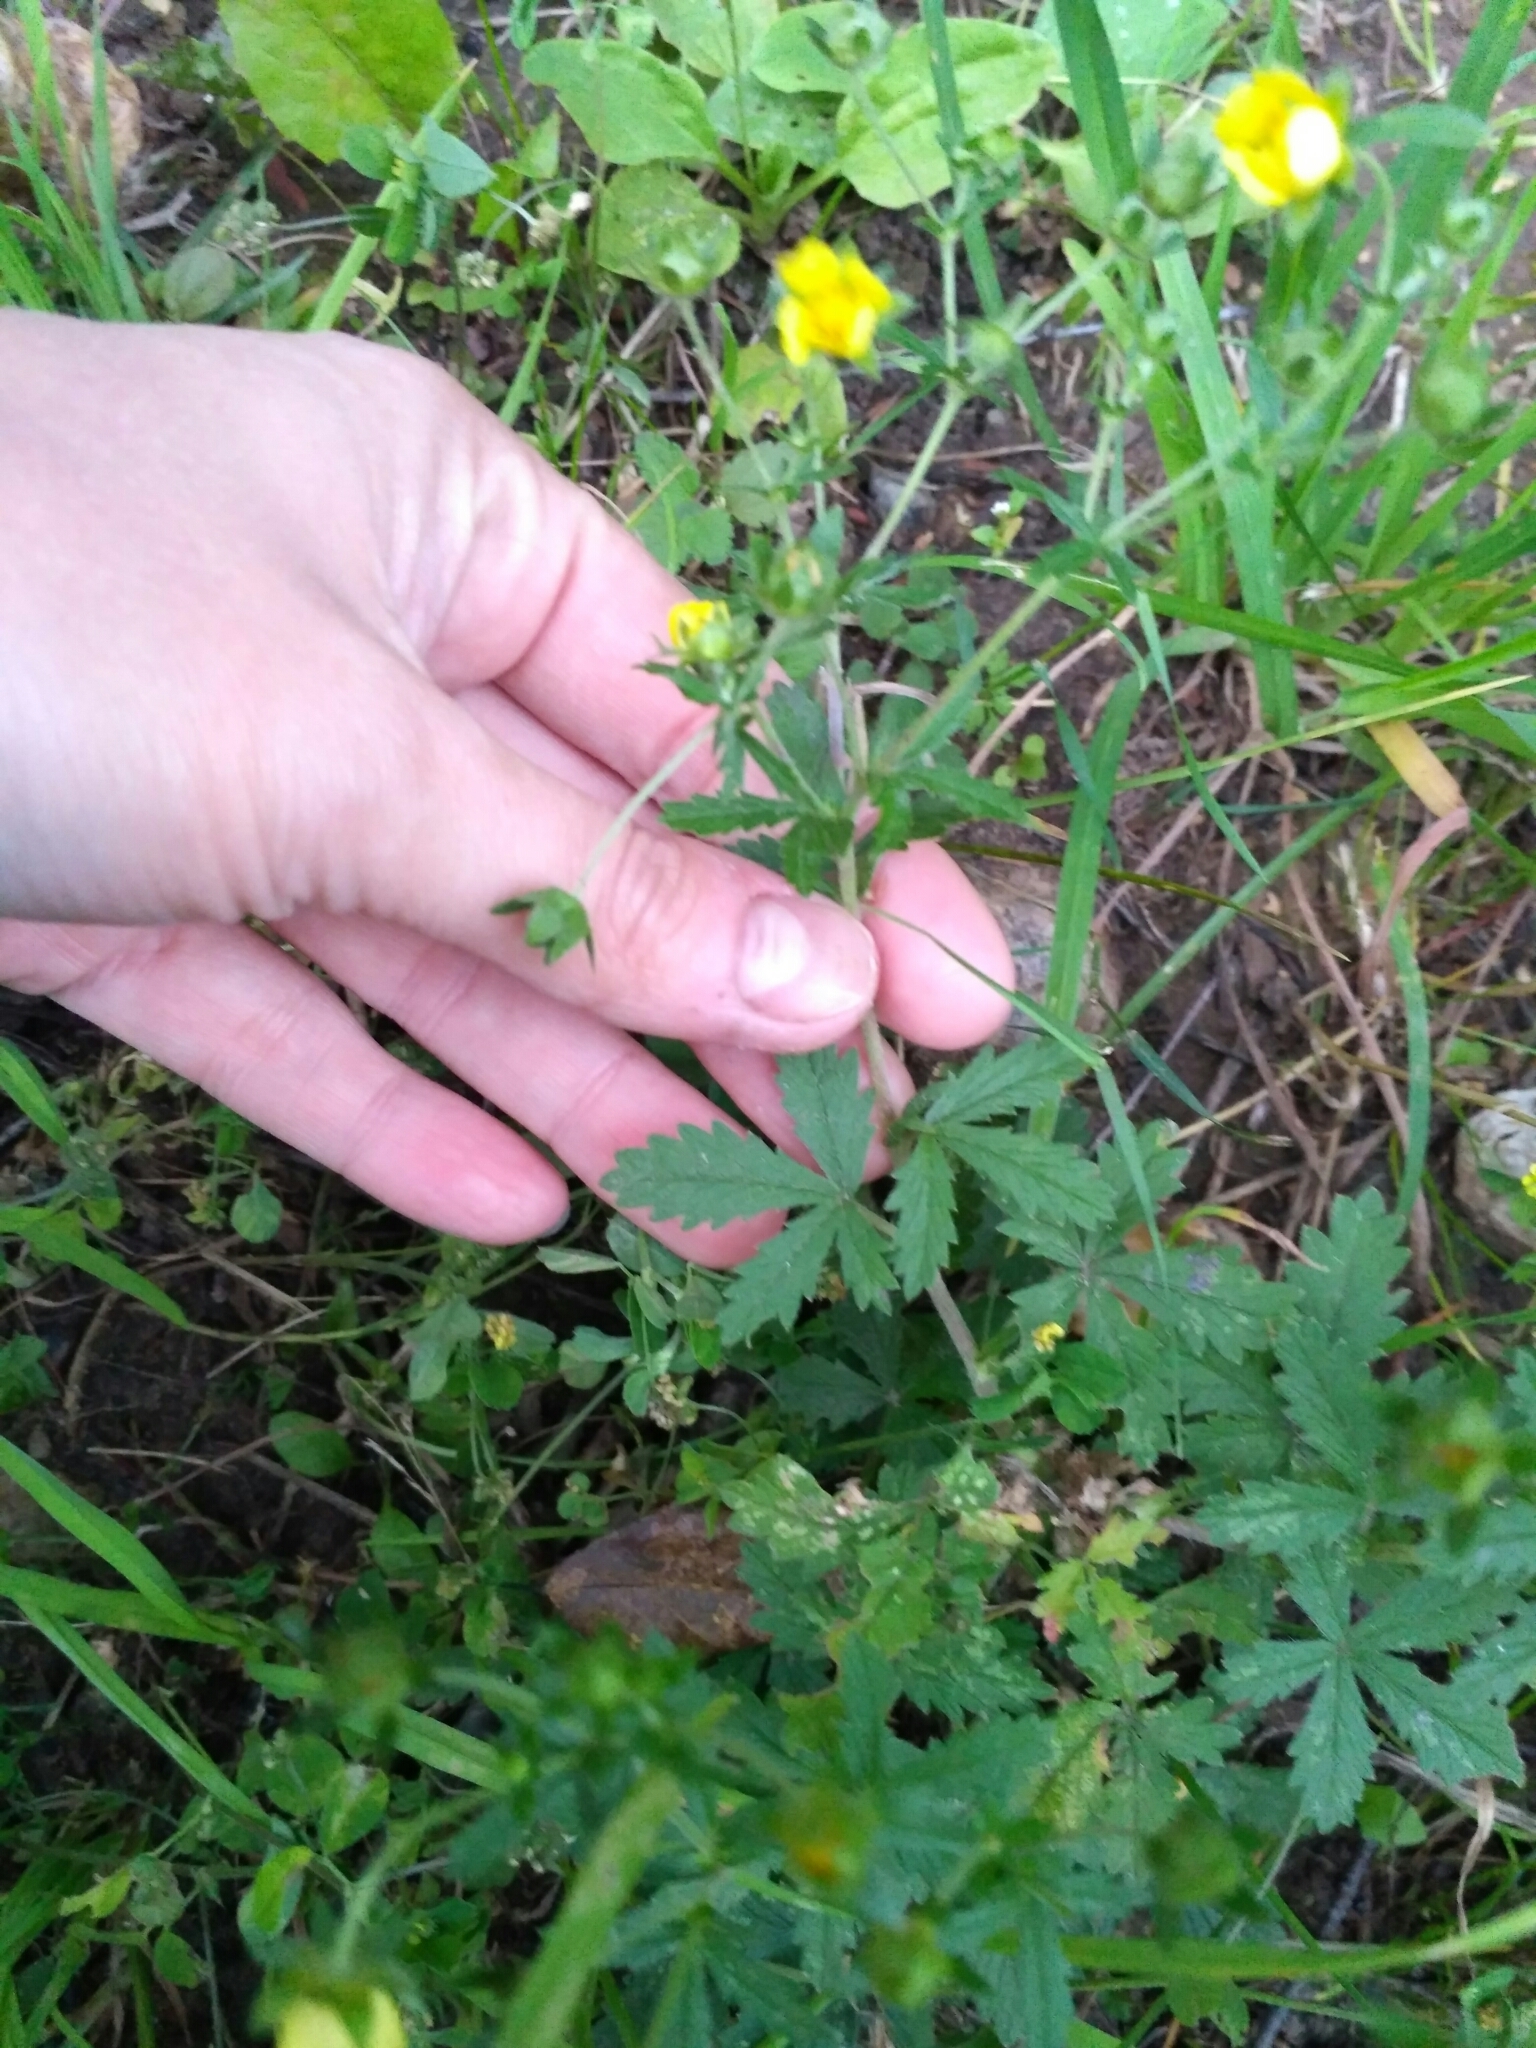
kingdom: Plantae
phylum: Tracheophyta
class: Magnoliopsida
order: Rosales
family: Rosaceae
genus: Potentilla
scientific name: Potentilla intermedia
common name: Downy cinquefoil
